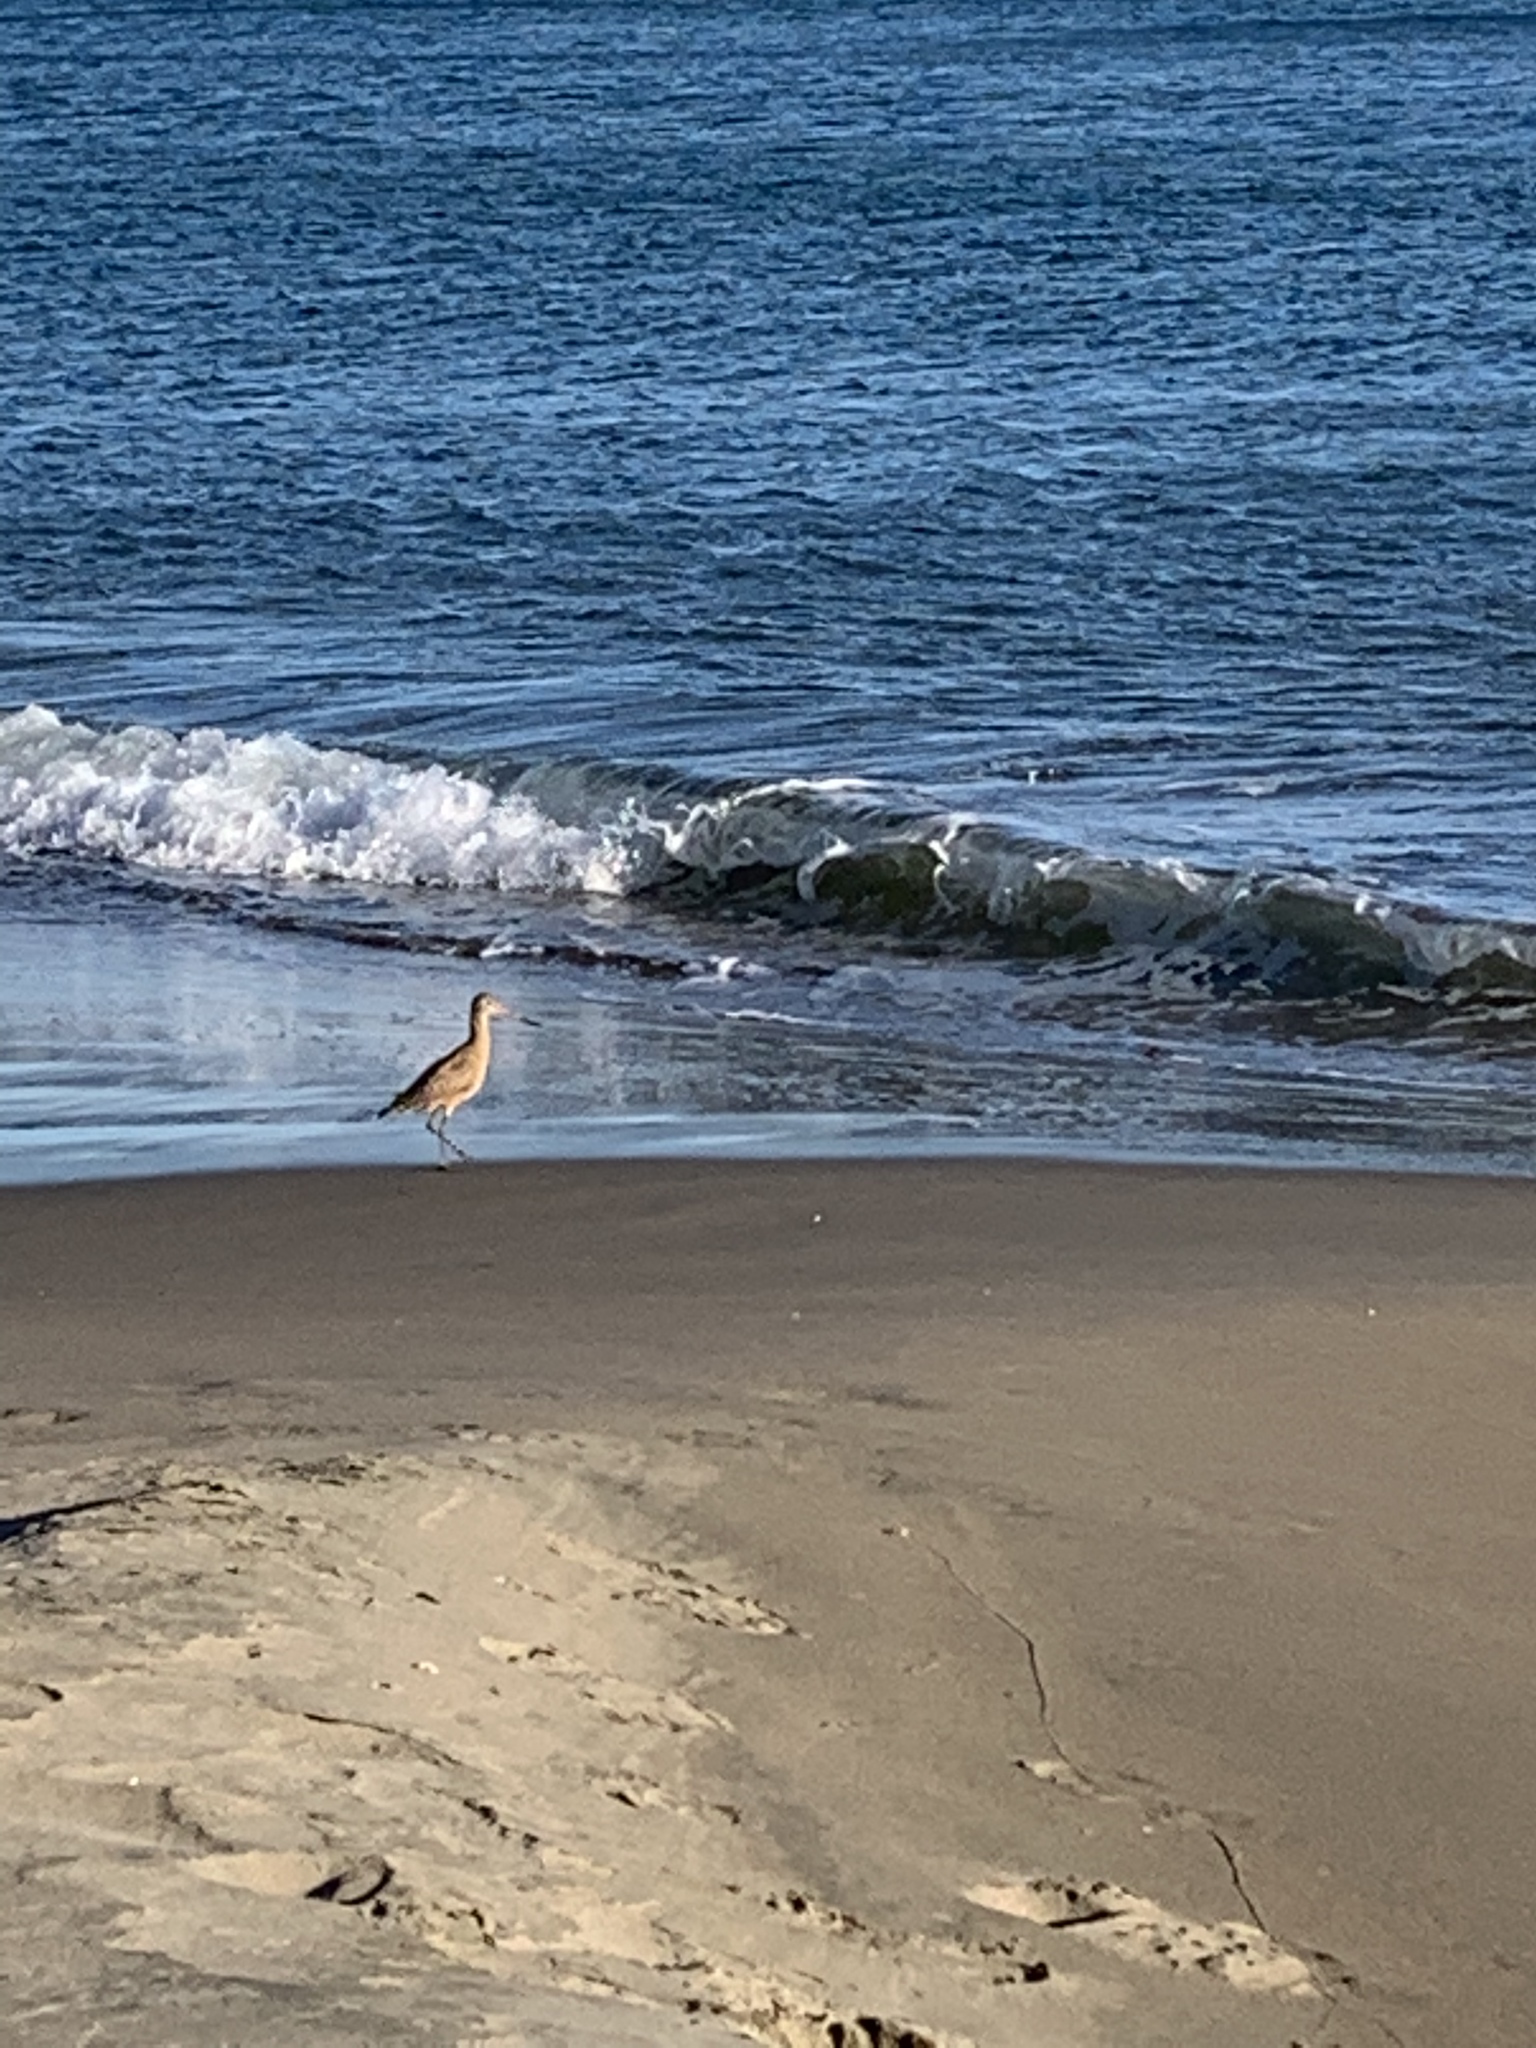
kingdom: Animalia
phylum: Chordata
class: Aves
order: Charadriiformes
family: Scolopacidae
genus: Limosa
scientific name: Limosa fedoa
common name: Marbled godwit
